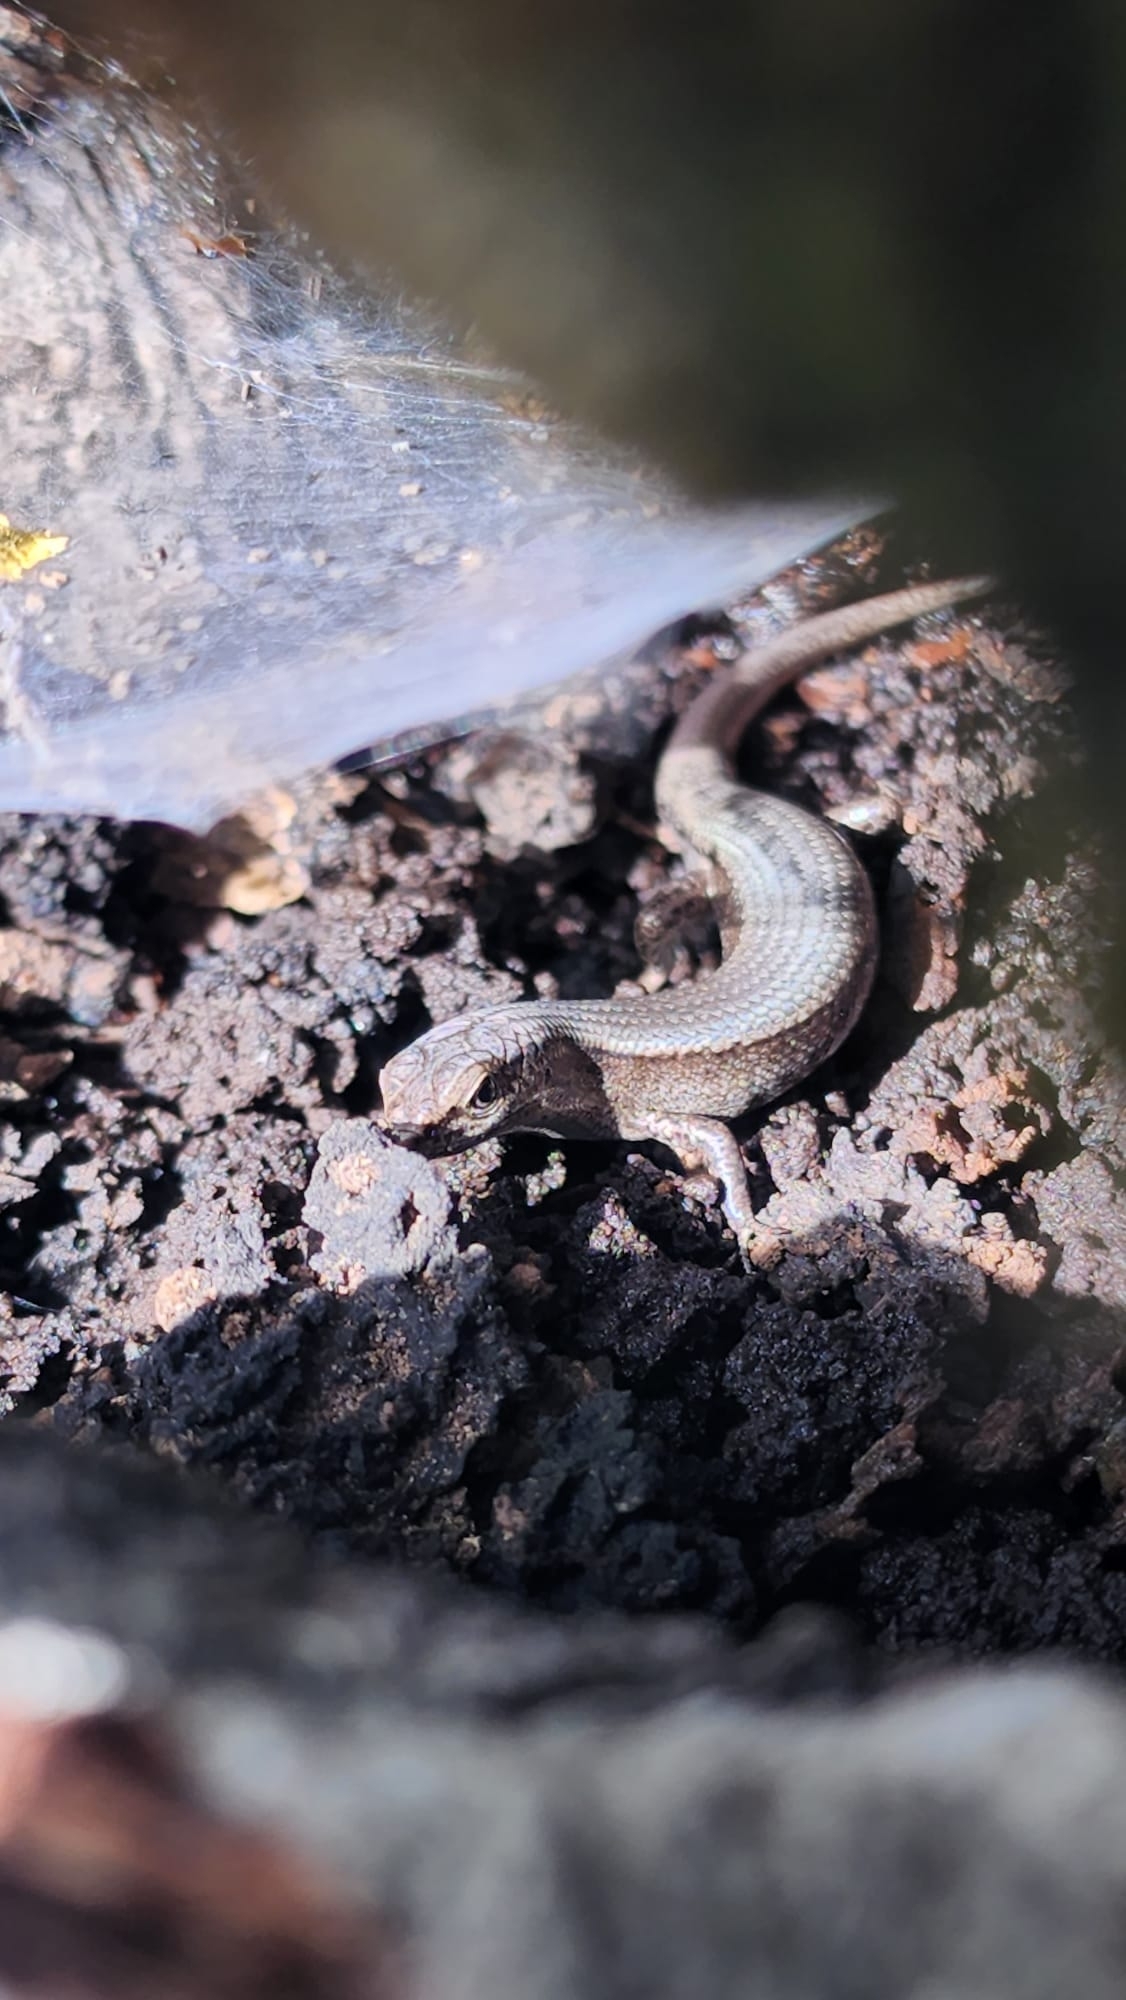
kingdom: Animalia
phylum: Chordata
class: Squamata
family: Scincidae
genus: Lampropholis
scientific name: Lampropholis delicata
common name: Plague skink
